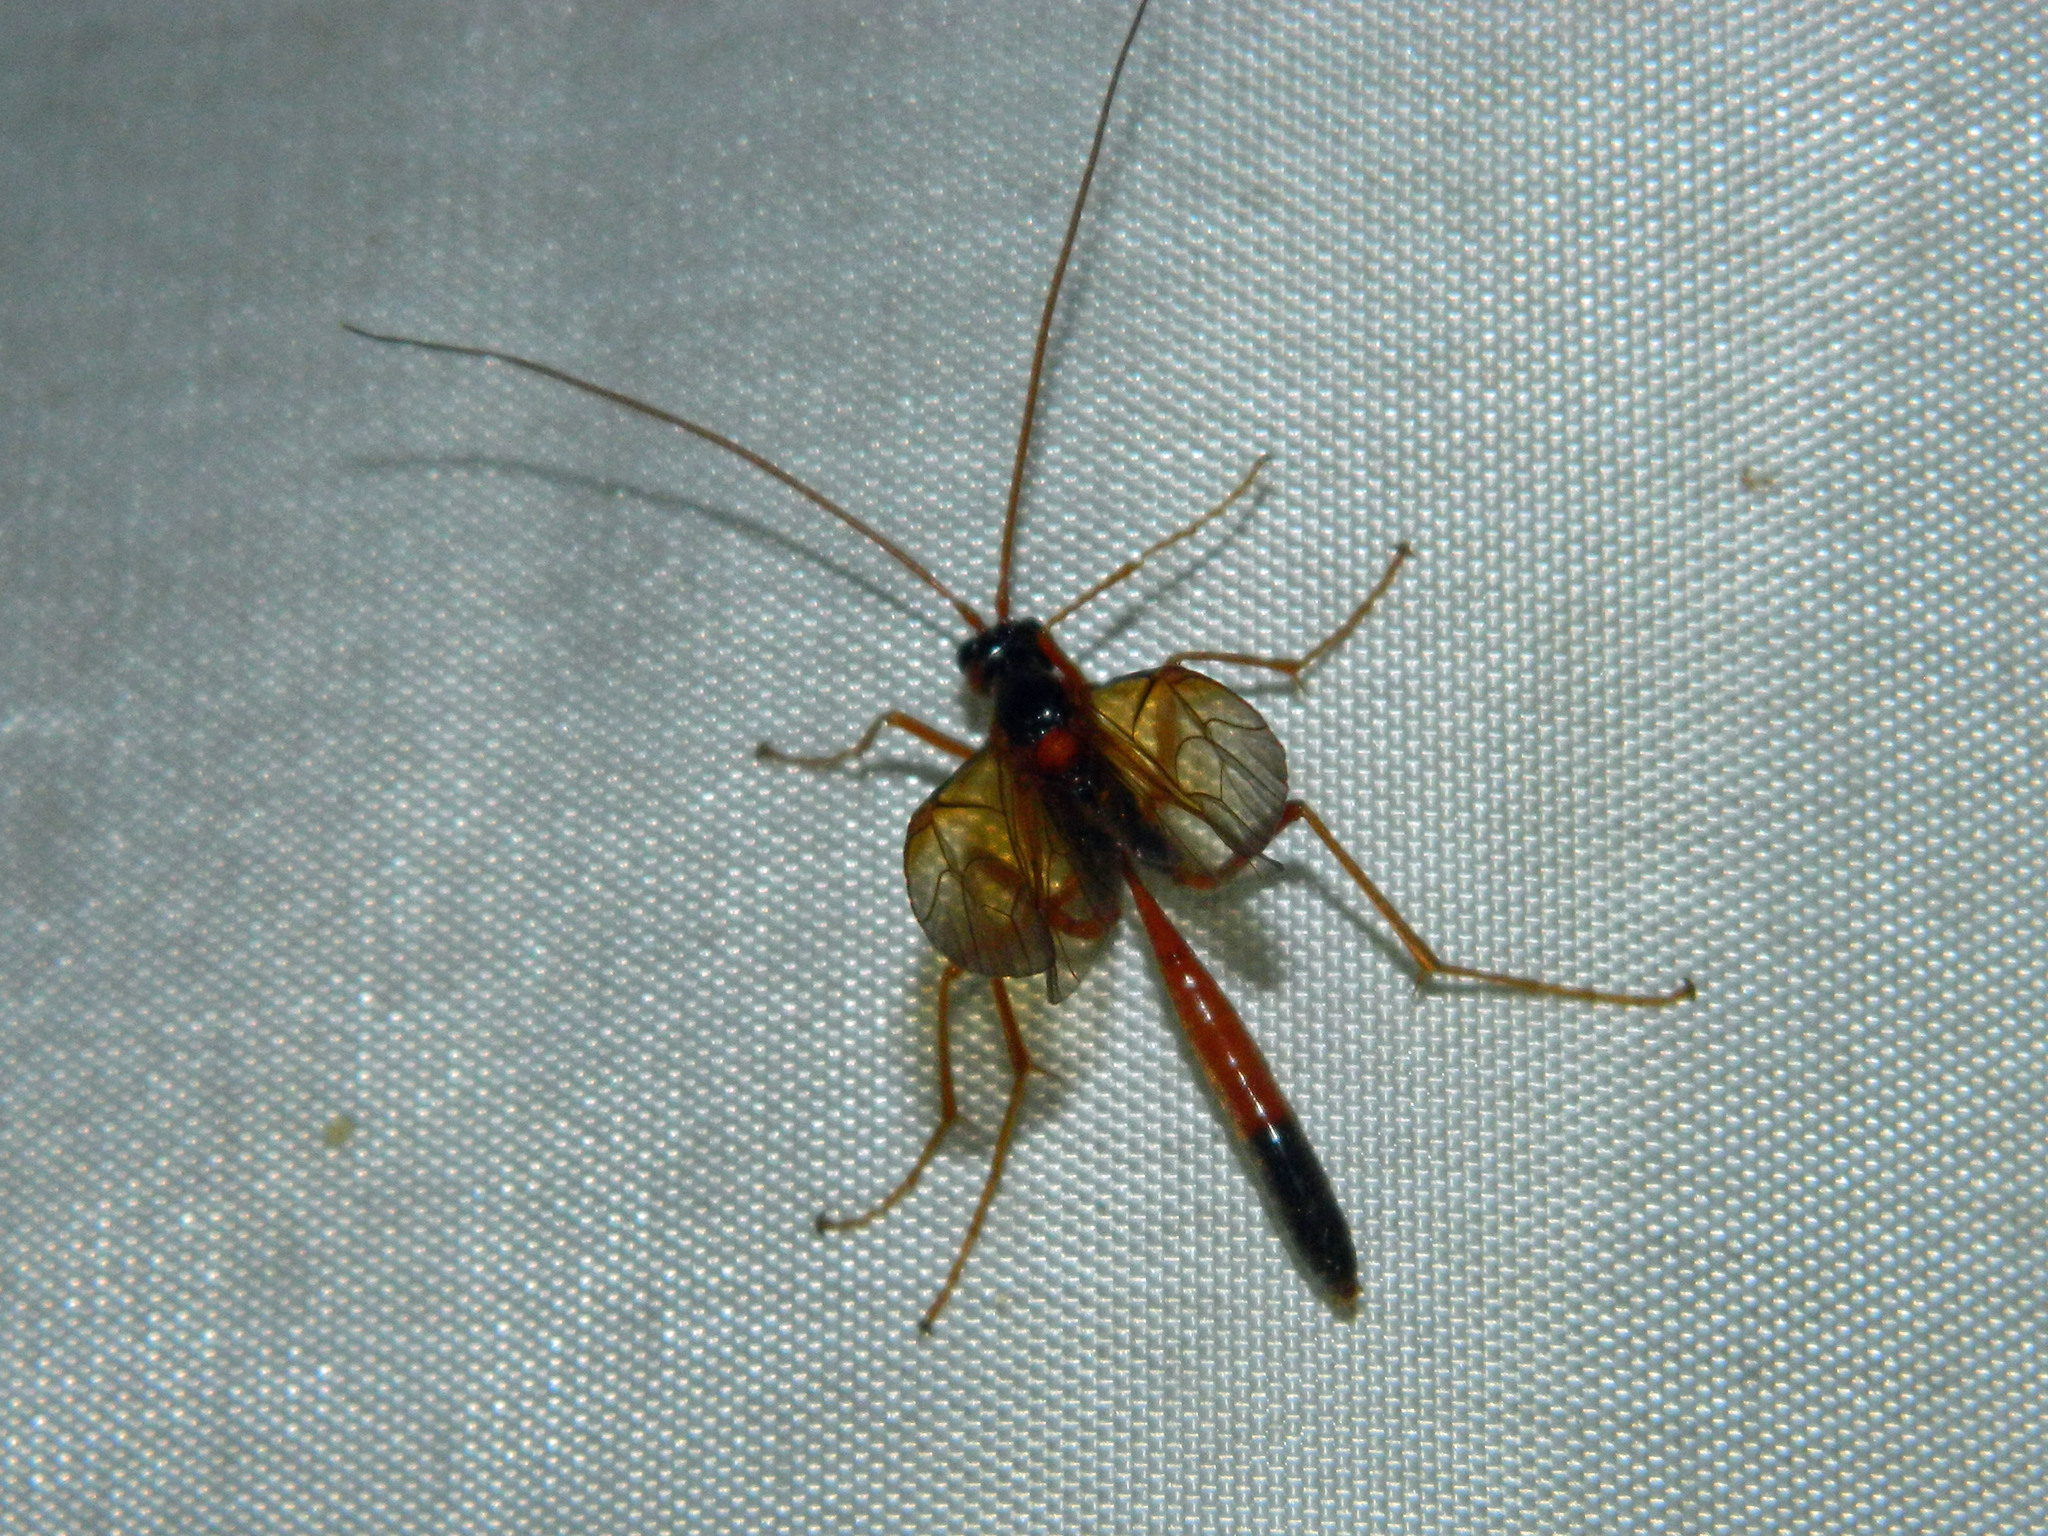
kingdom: Animalia
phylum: Arthropoda
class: Insecta
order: Hymenoptera
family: Ichneumonidae
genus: Opheltes
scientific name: Opheltes glaucopterus
